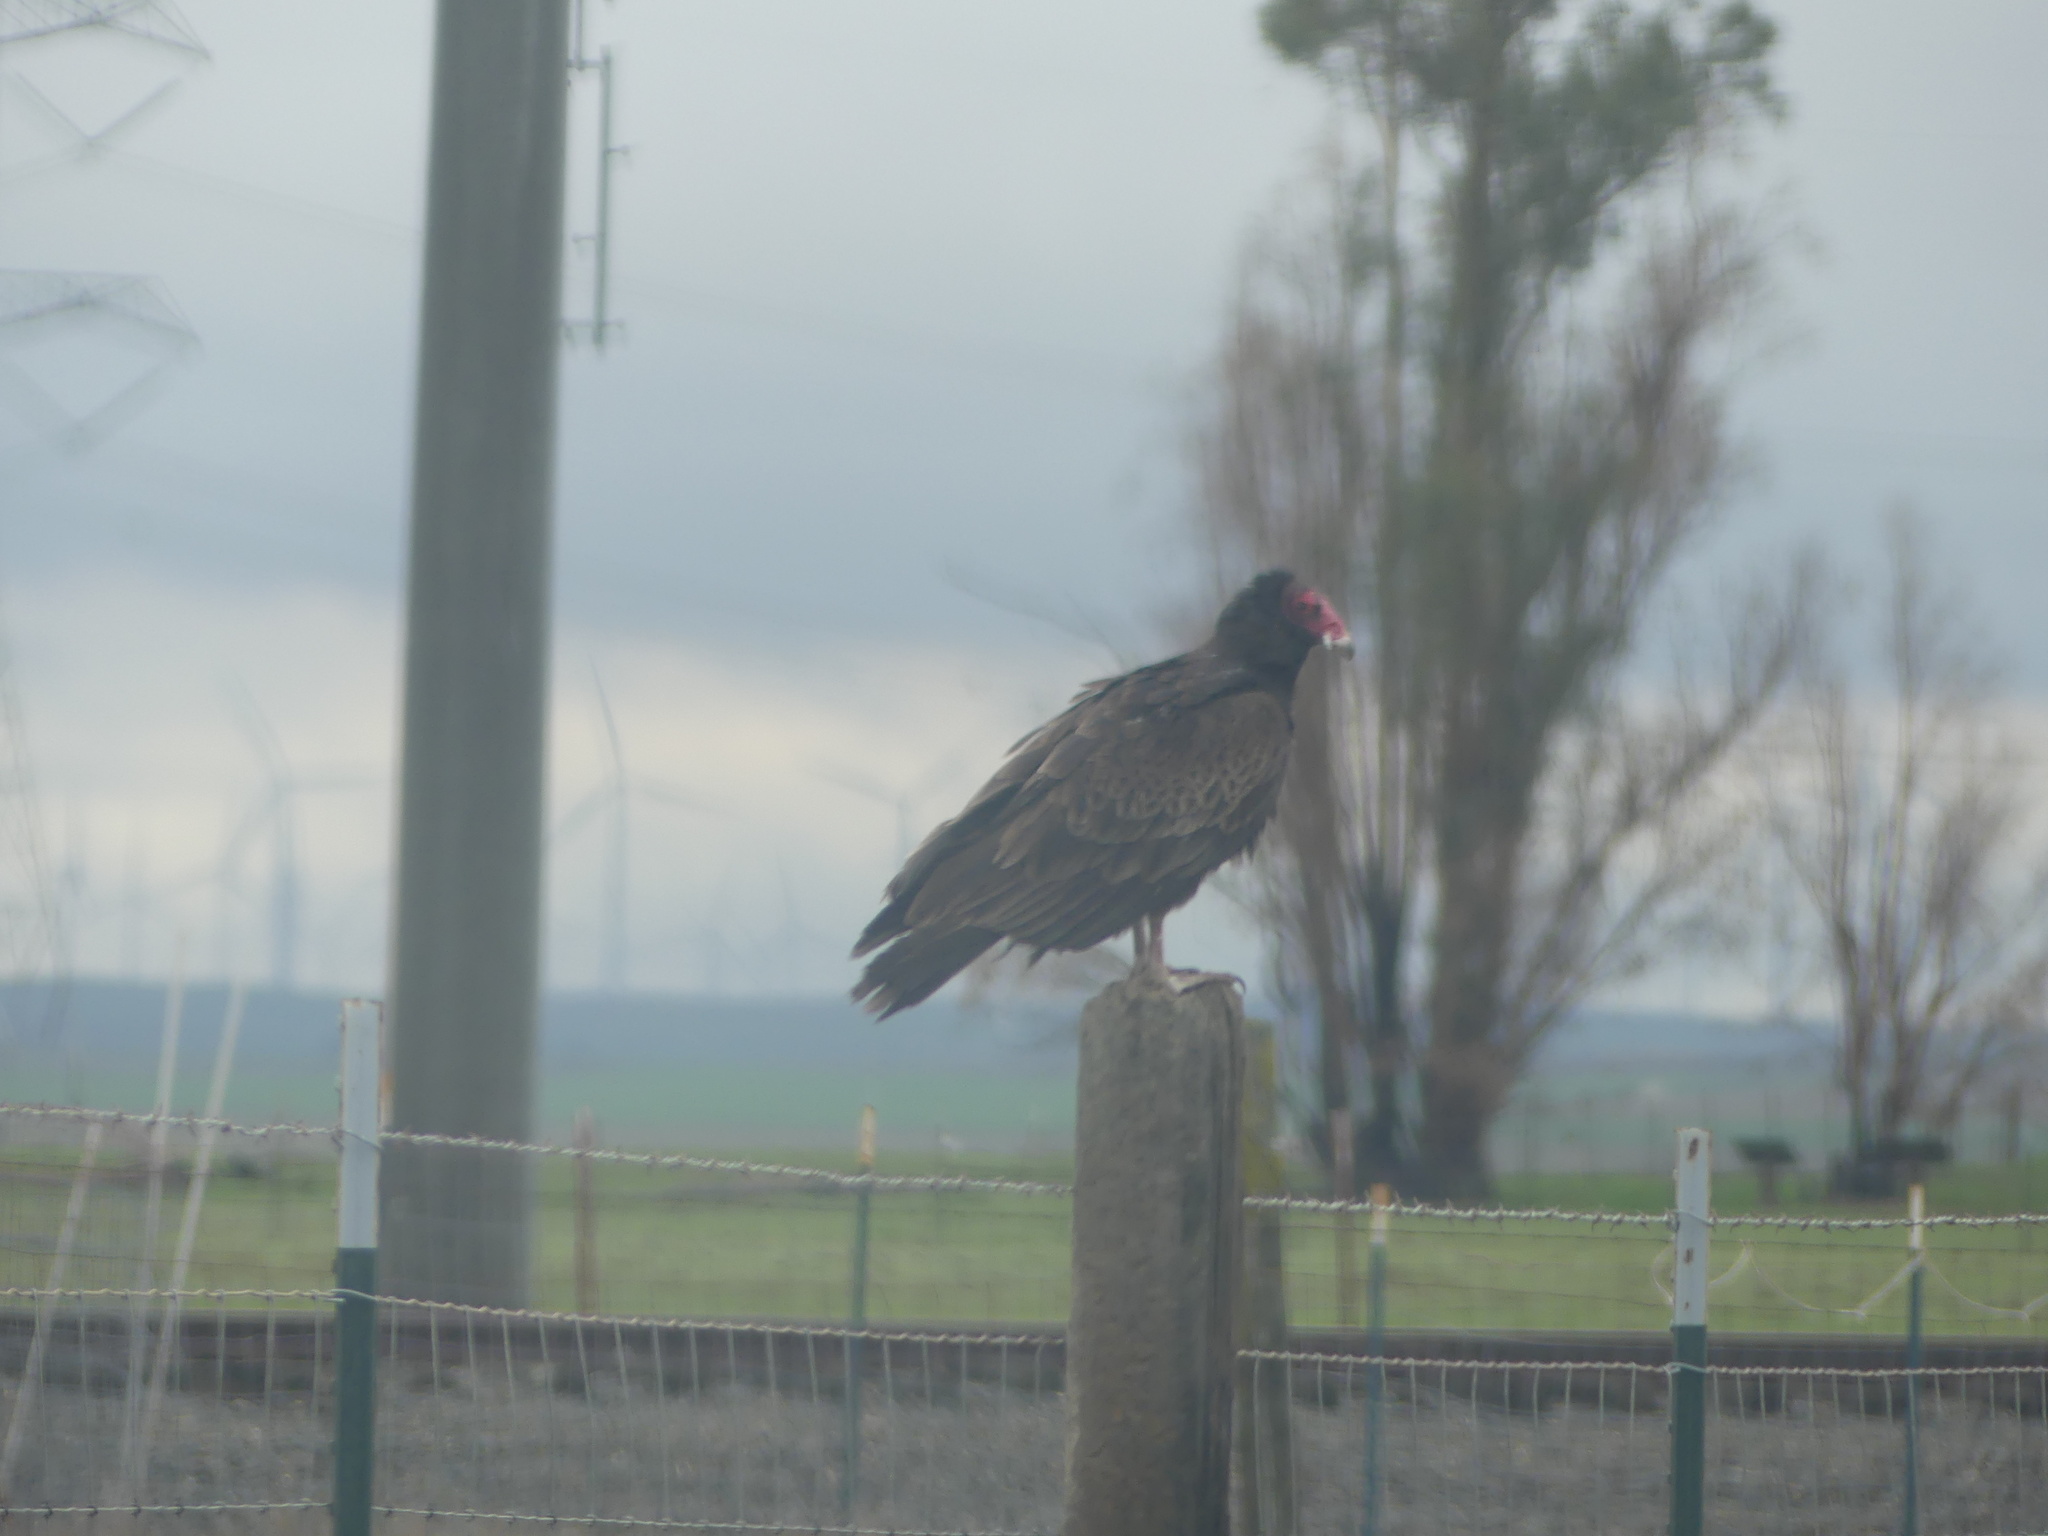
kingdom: Animalia
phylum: Chordata
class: Aves
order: Accipitriformes
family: Cathartidae
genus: Cathartes
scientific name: Cathartes aura
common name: Turkey vulture
